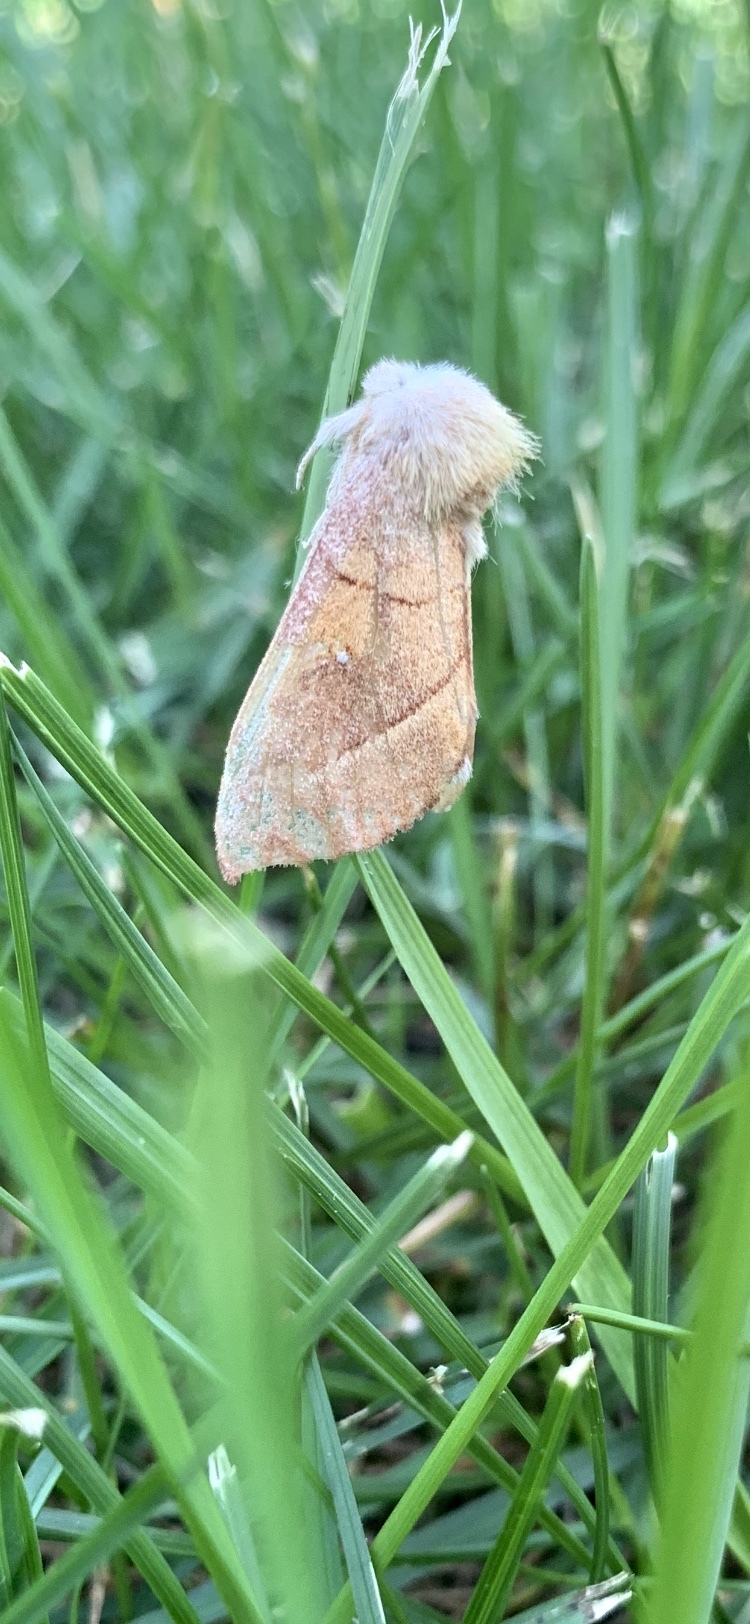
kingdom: Animalia
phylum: Arthropoda
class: Insecta
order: Lepidoptera
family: Notodontidae
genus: Nadata
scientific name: Nadata gibbosa
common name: White-dotted prominent
